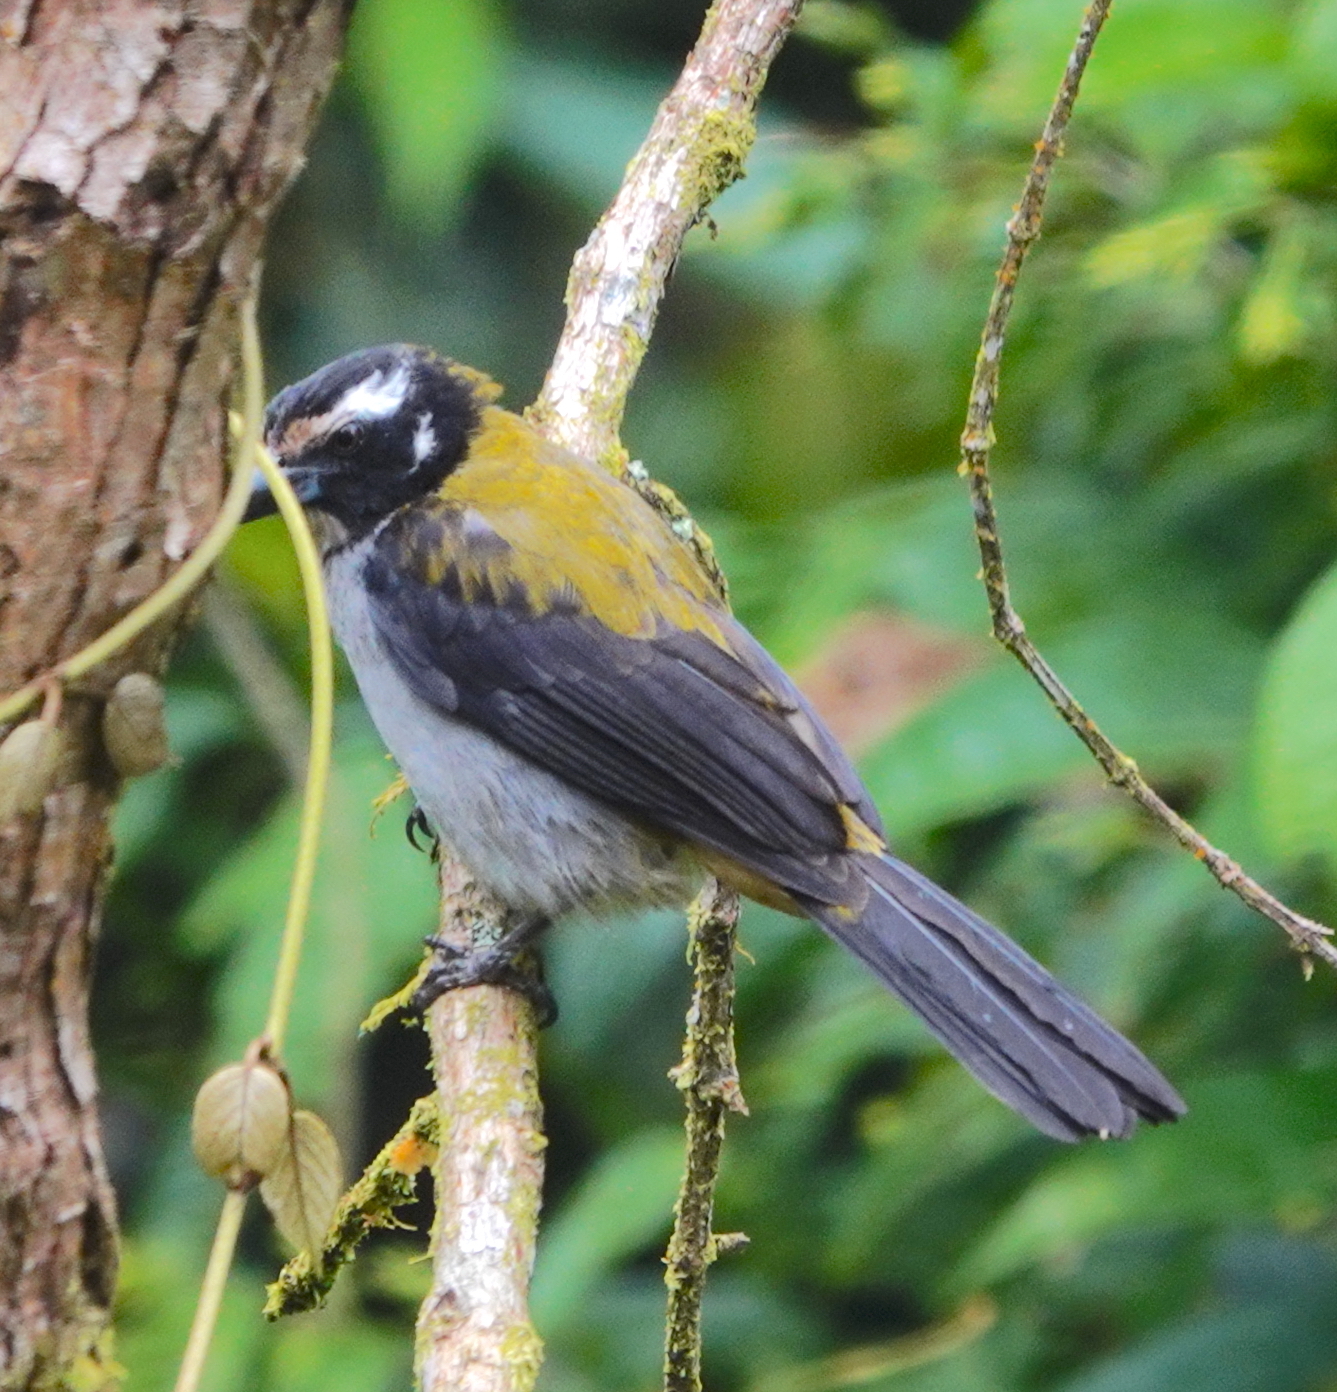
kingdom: Animalia
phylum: Chordata
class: Aves
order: Passeriformes
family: Thraupidae
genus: Saltator
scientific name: Saltator atripennis
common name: Black-winged saltator
